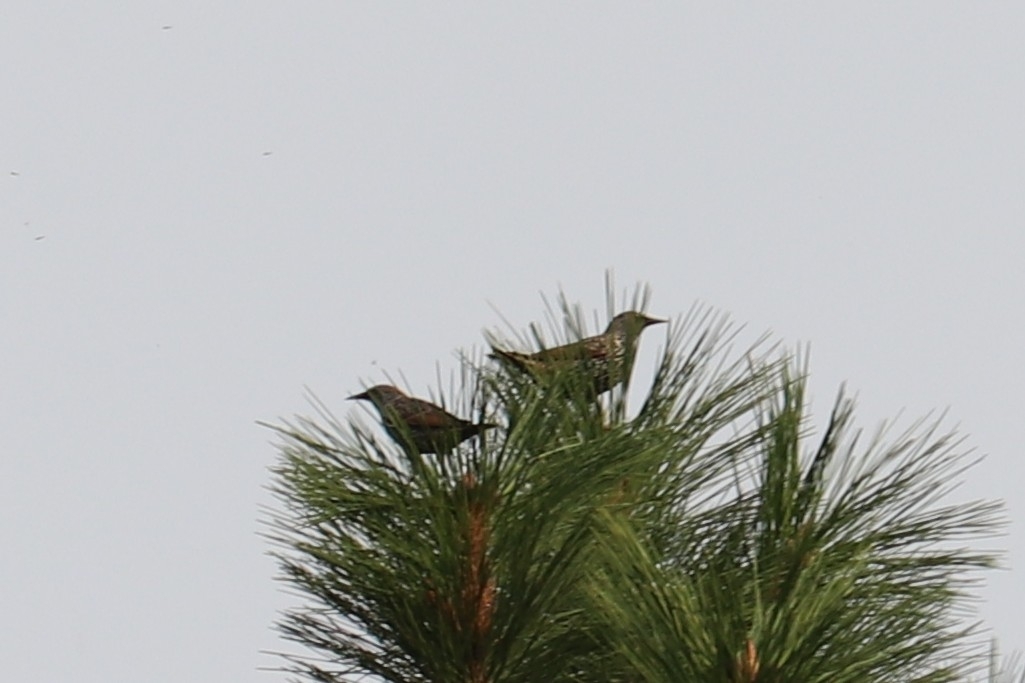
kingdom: Animalia
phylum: Chordata
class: Aves
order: Passeriformes
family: Sturnidae
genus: Sturnus
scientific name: Sturnus vulgaris
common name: Common starling
